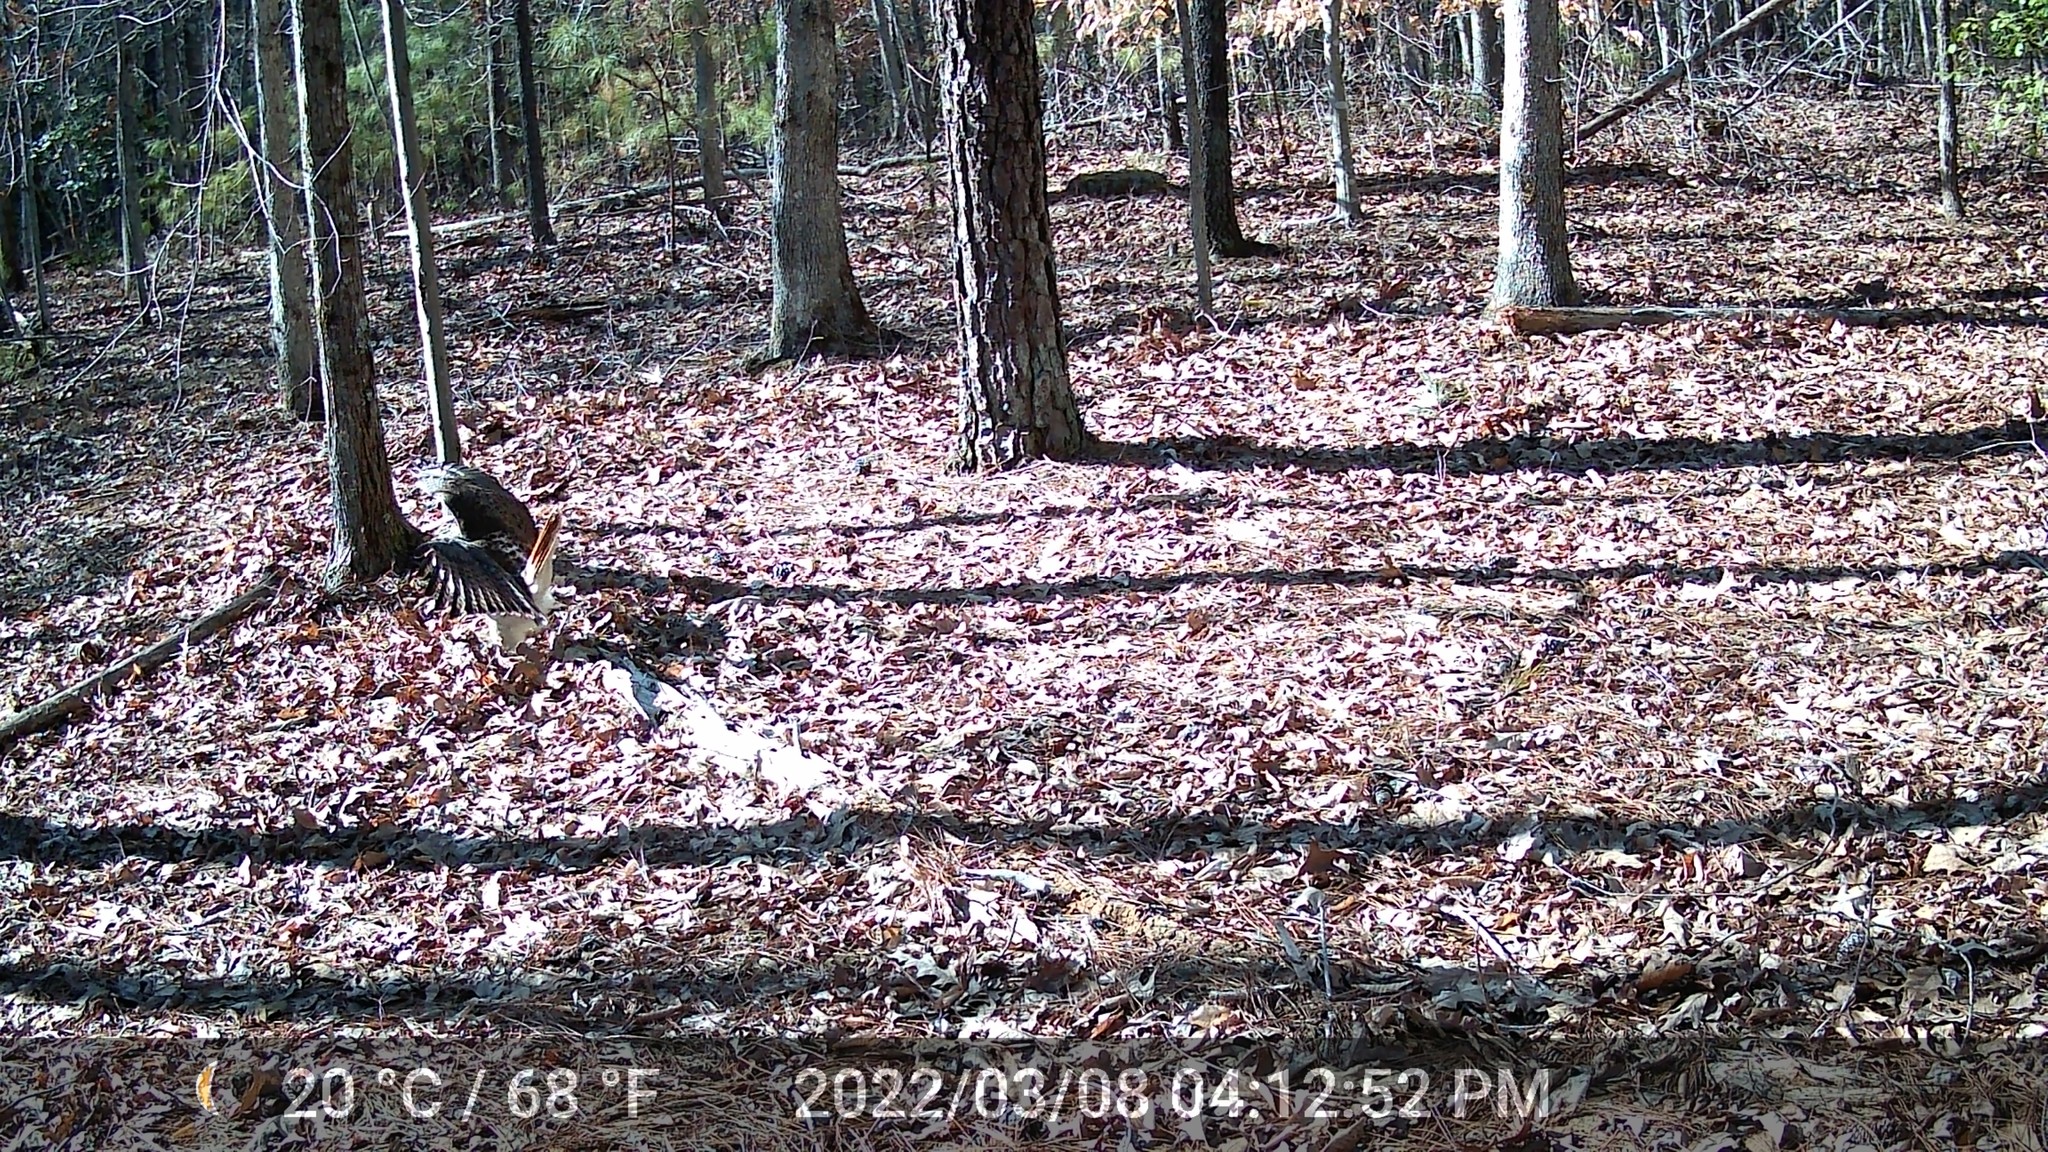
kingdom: Animalia
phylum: Chordata
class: Aves
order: Accipitriformes
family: Accipitridae
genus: Buteo
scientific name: Buteo jamaicensis
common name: Red-tailed hawk
